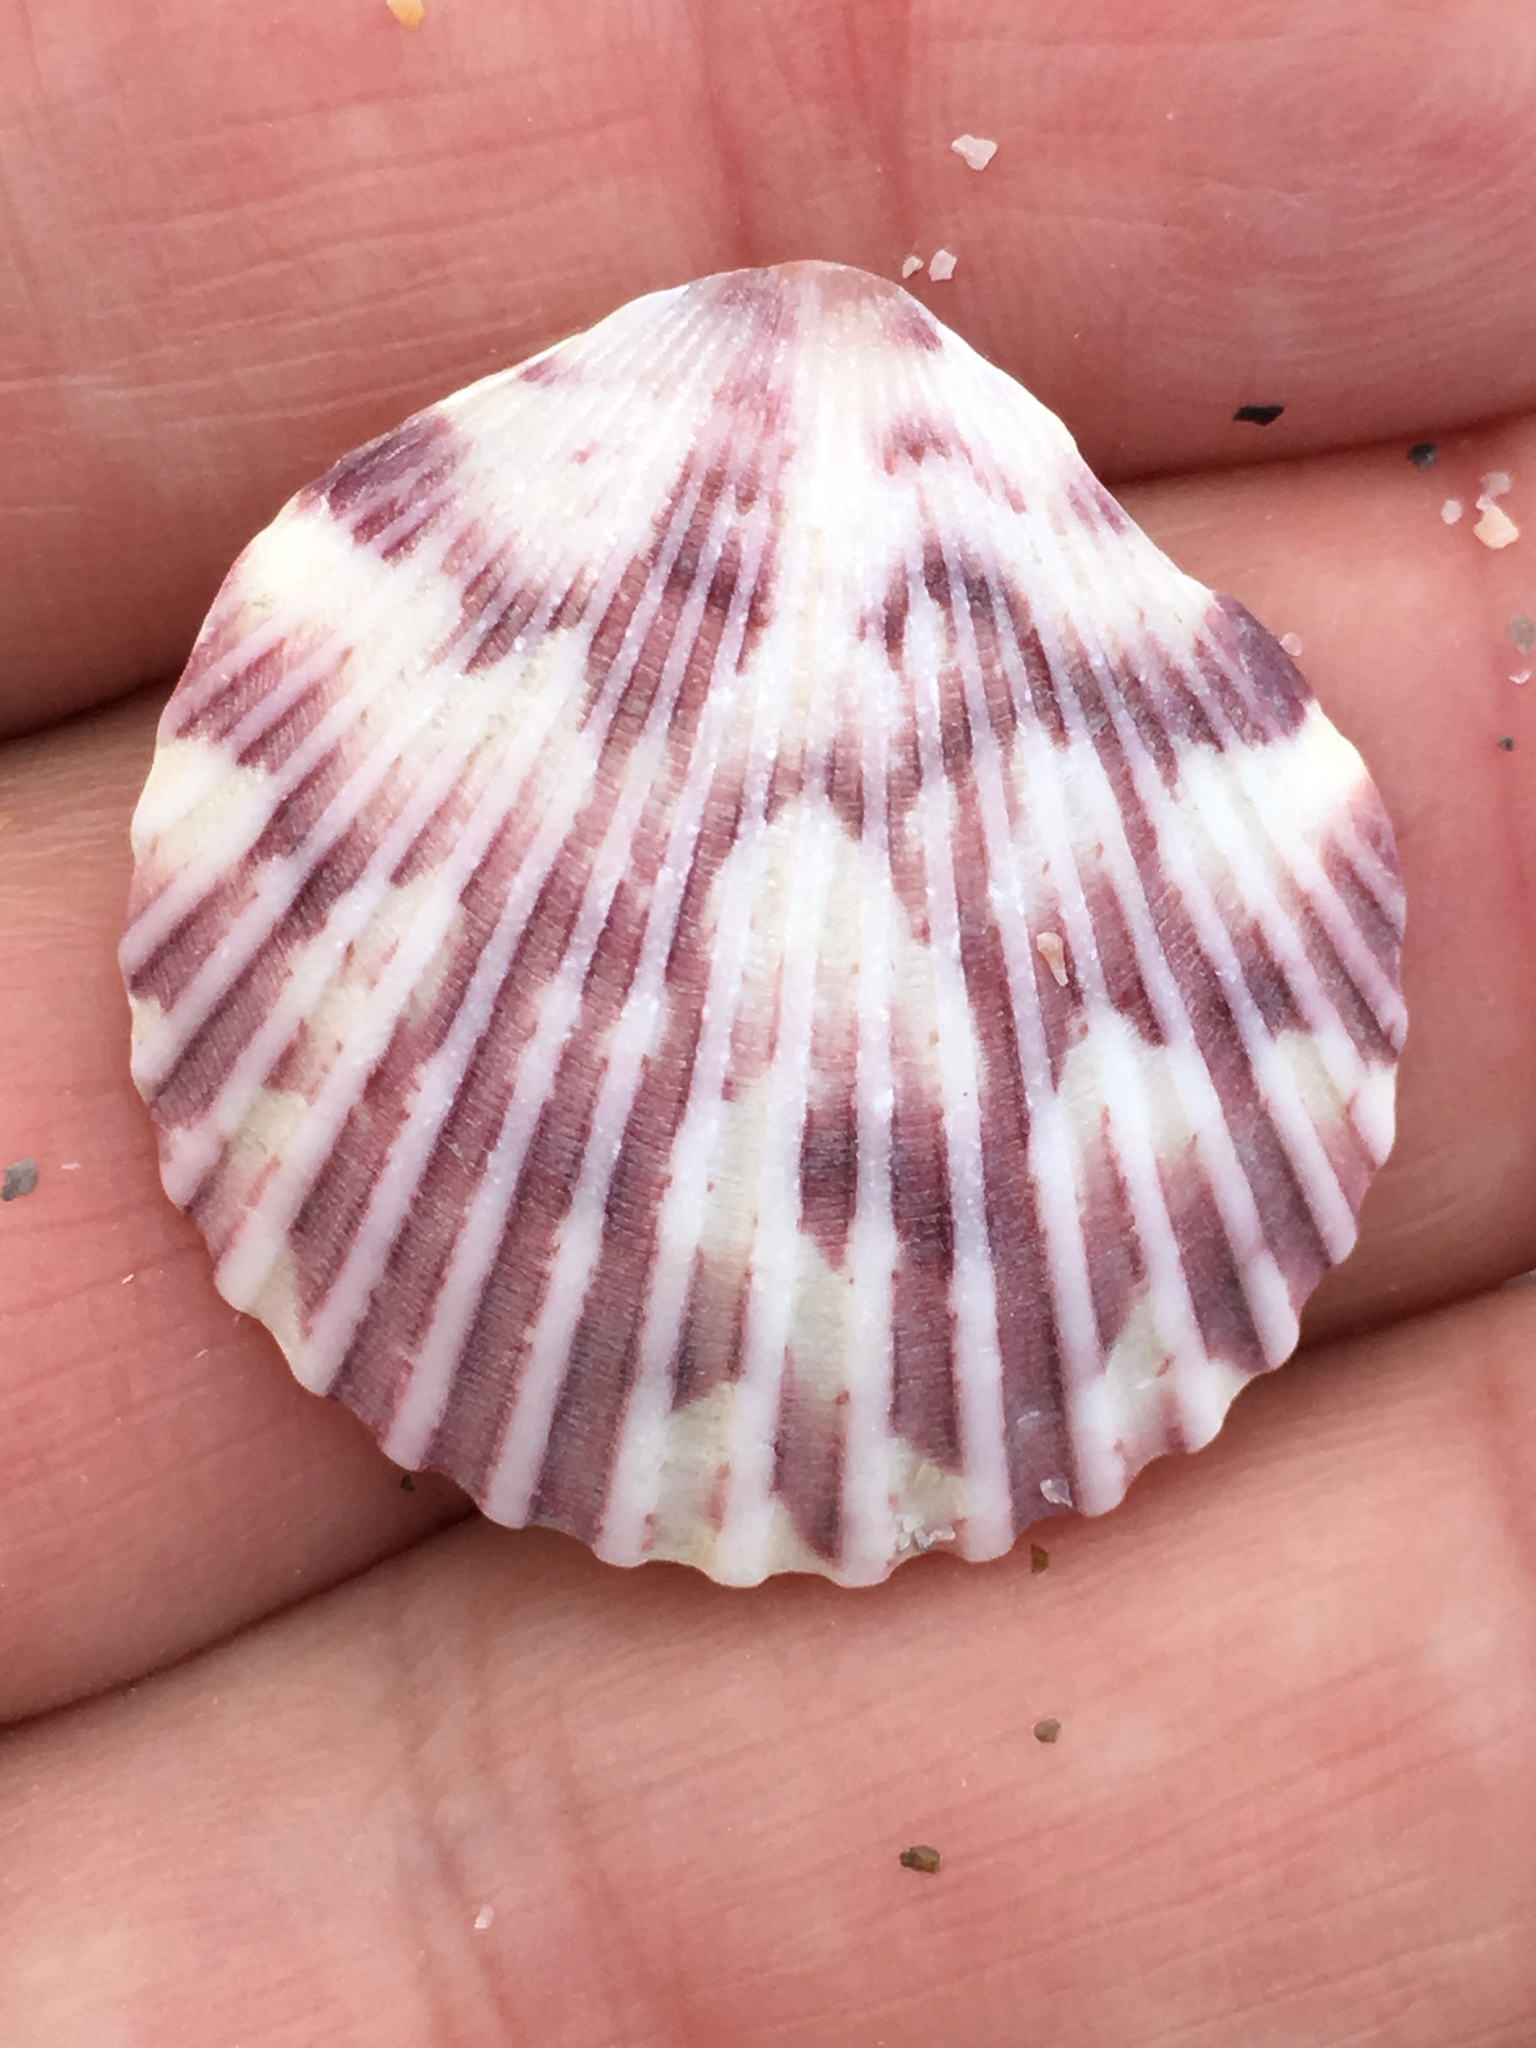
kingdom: Animalia
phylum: Mollusca
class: Bivalvia
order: Pectinida
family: Pectinidae
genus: Argopecten
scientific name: Argopecten gibbus
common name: Atlantic calico scallop
